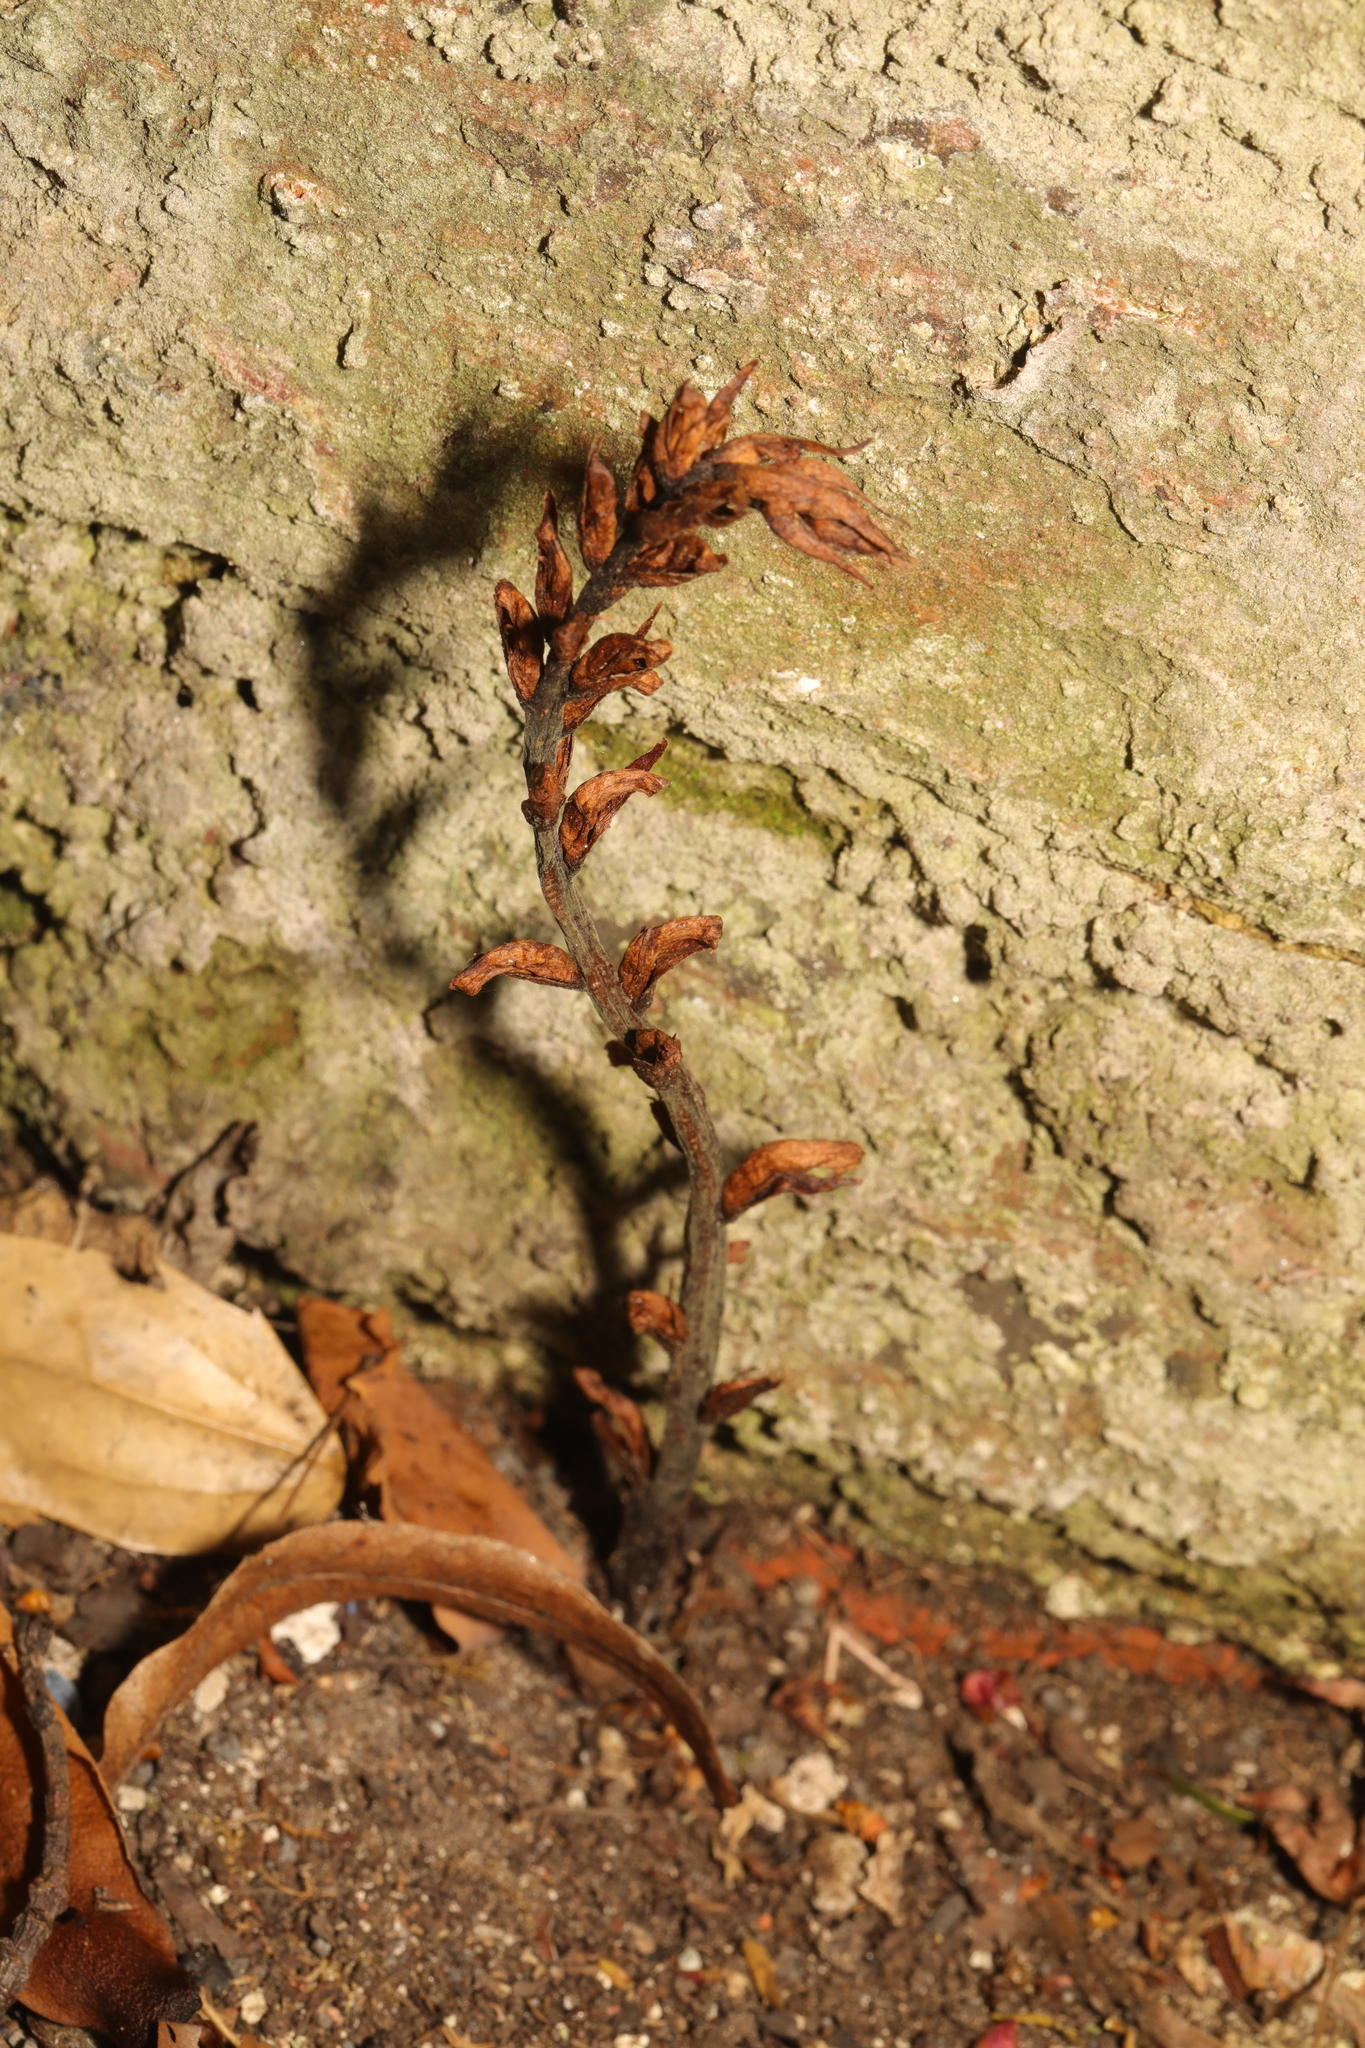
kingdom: Plantae
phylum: Tracheophyta
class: Magnoliopsida
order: Lamiales
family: Orobanchaceae
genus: Orobanche
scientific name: Orobanche hederae
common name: Ivy broomrape
